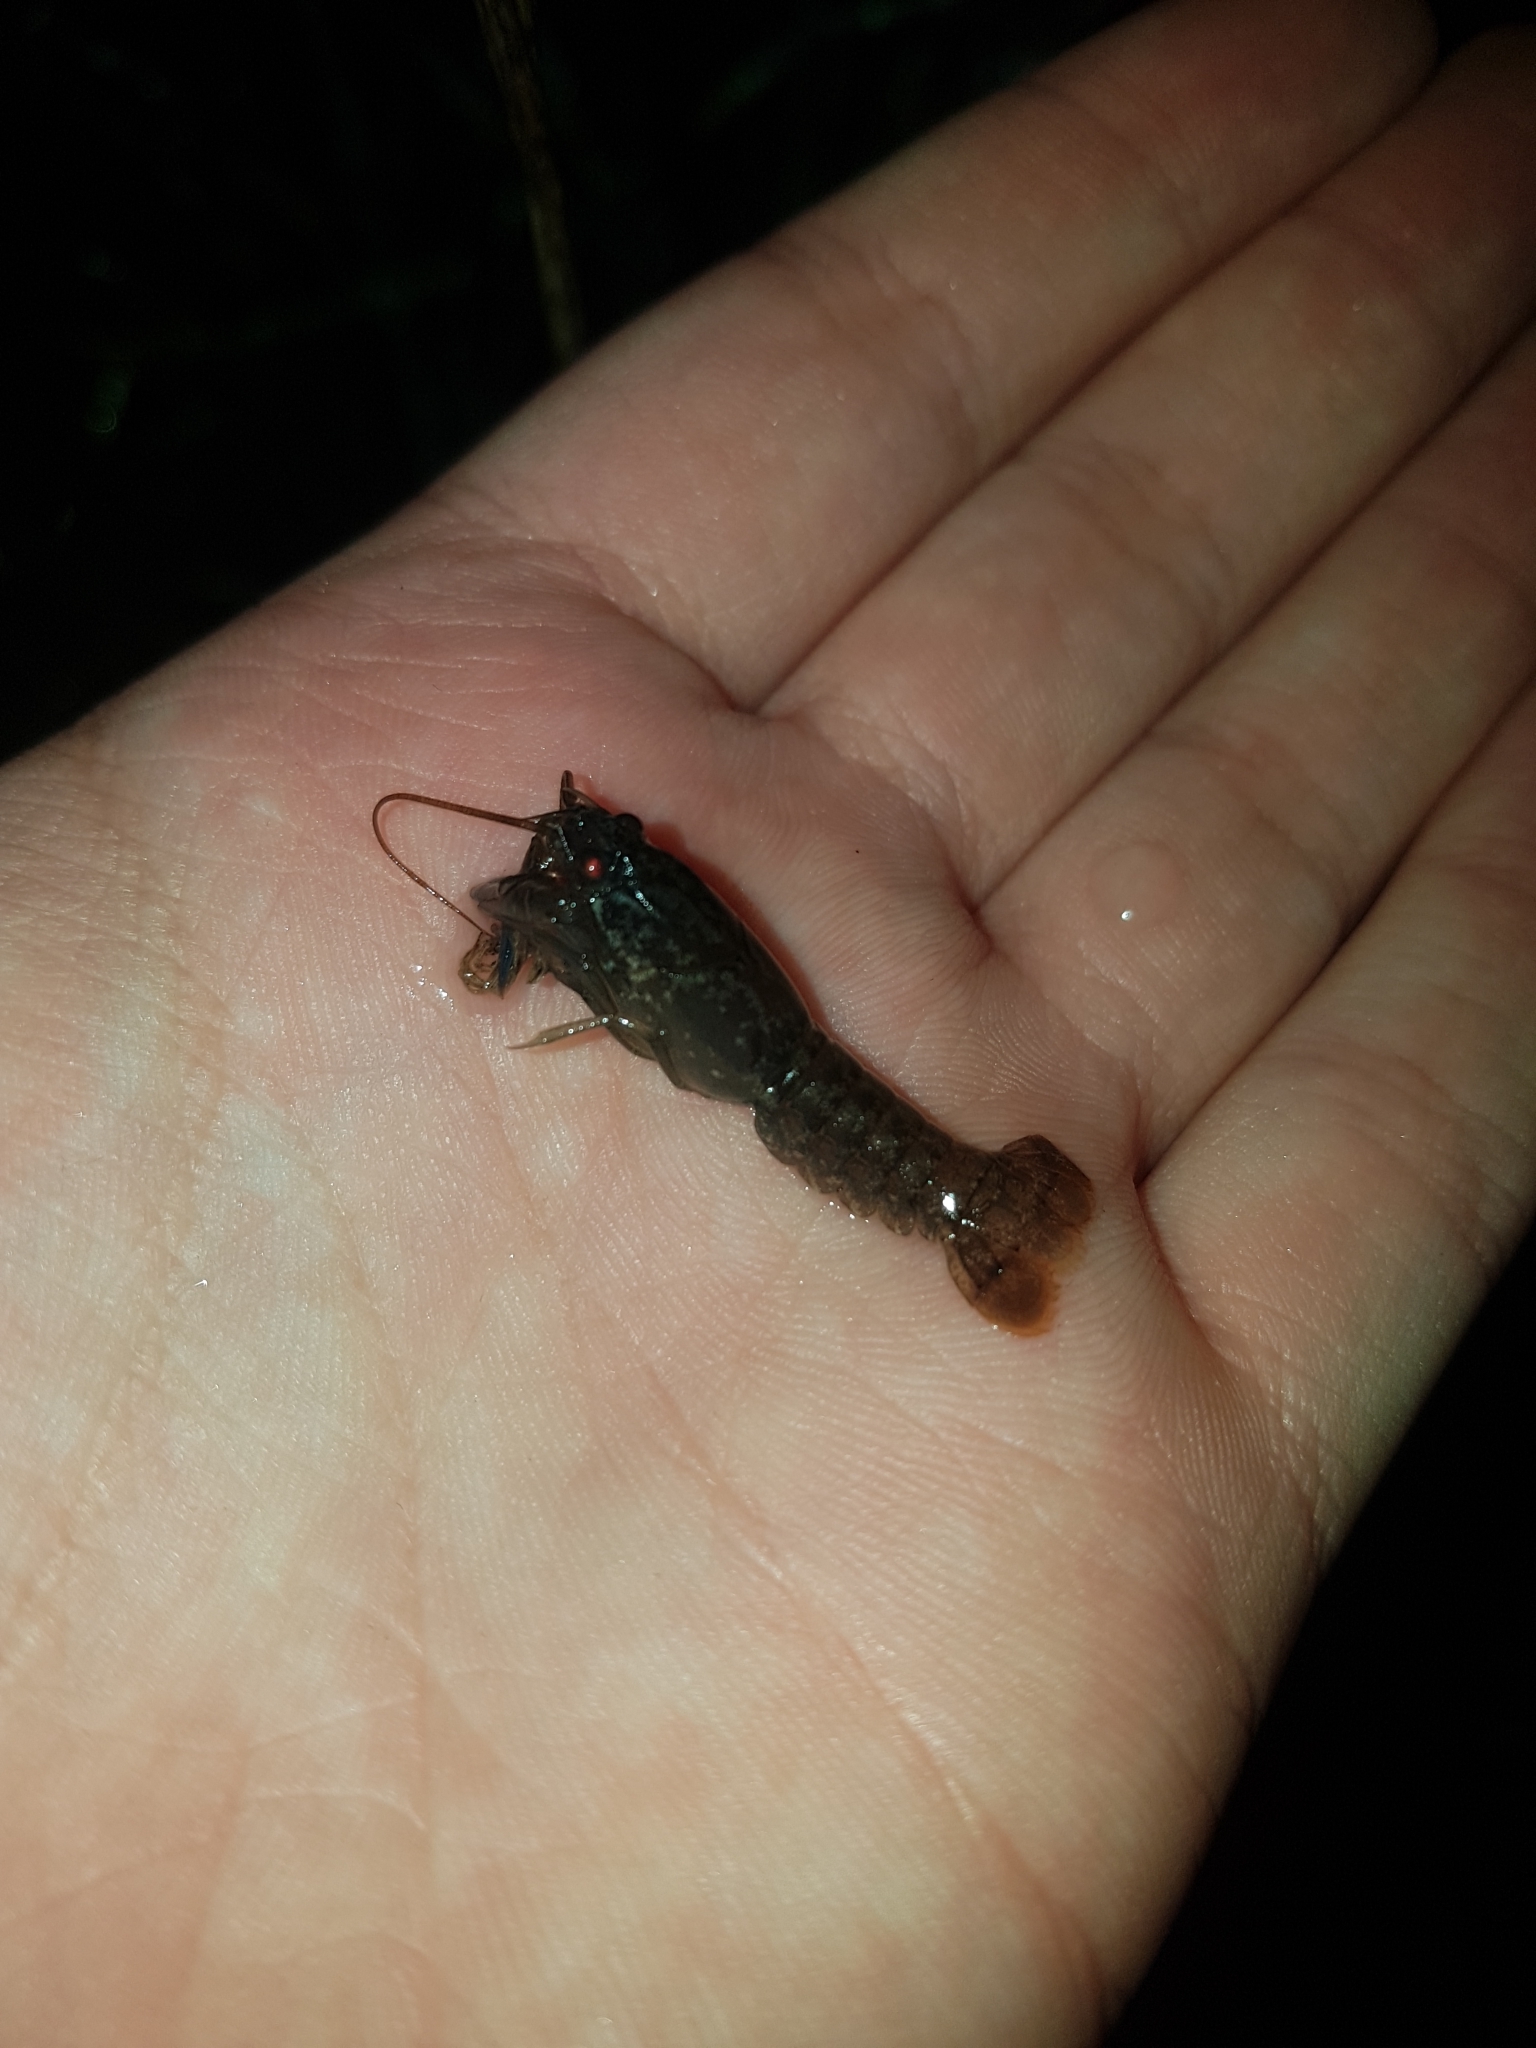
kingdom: Animalia
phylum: Arthropoda
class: Malacostraca
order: Decapoda
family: Parastacidae
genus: Cherax
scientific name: Cherax destructor
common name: Yabby
